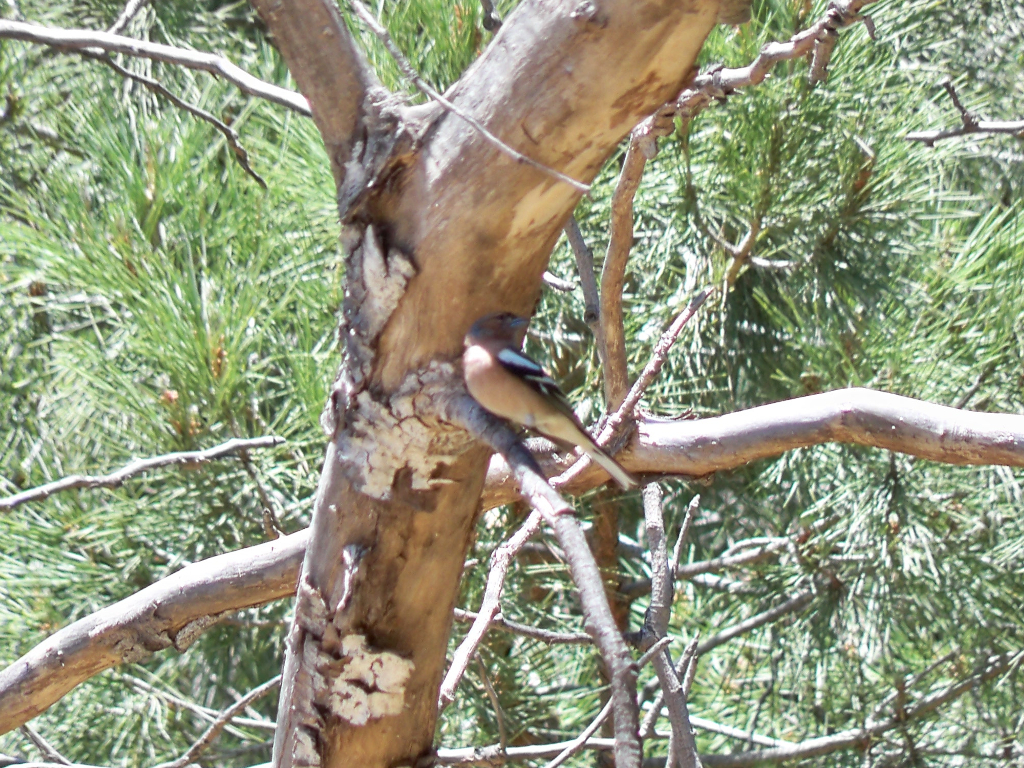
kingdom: Animalia
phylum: Chordata
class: Aves
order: Passeriformes
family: Fringillidae
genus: Fringilla
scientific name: Fringilla coelebs
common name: Common chaffinch
